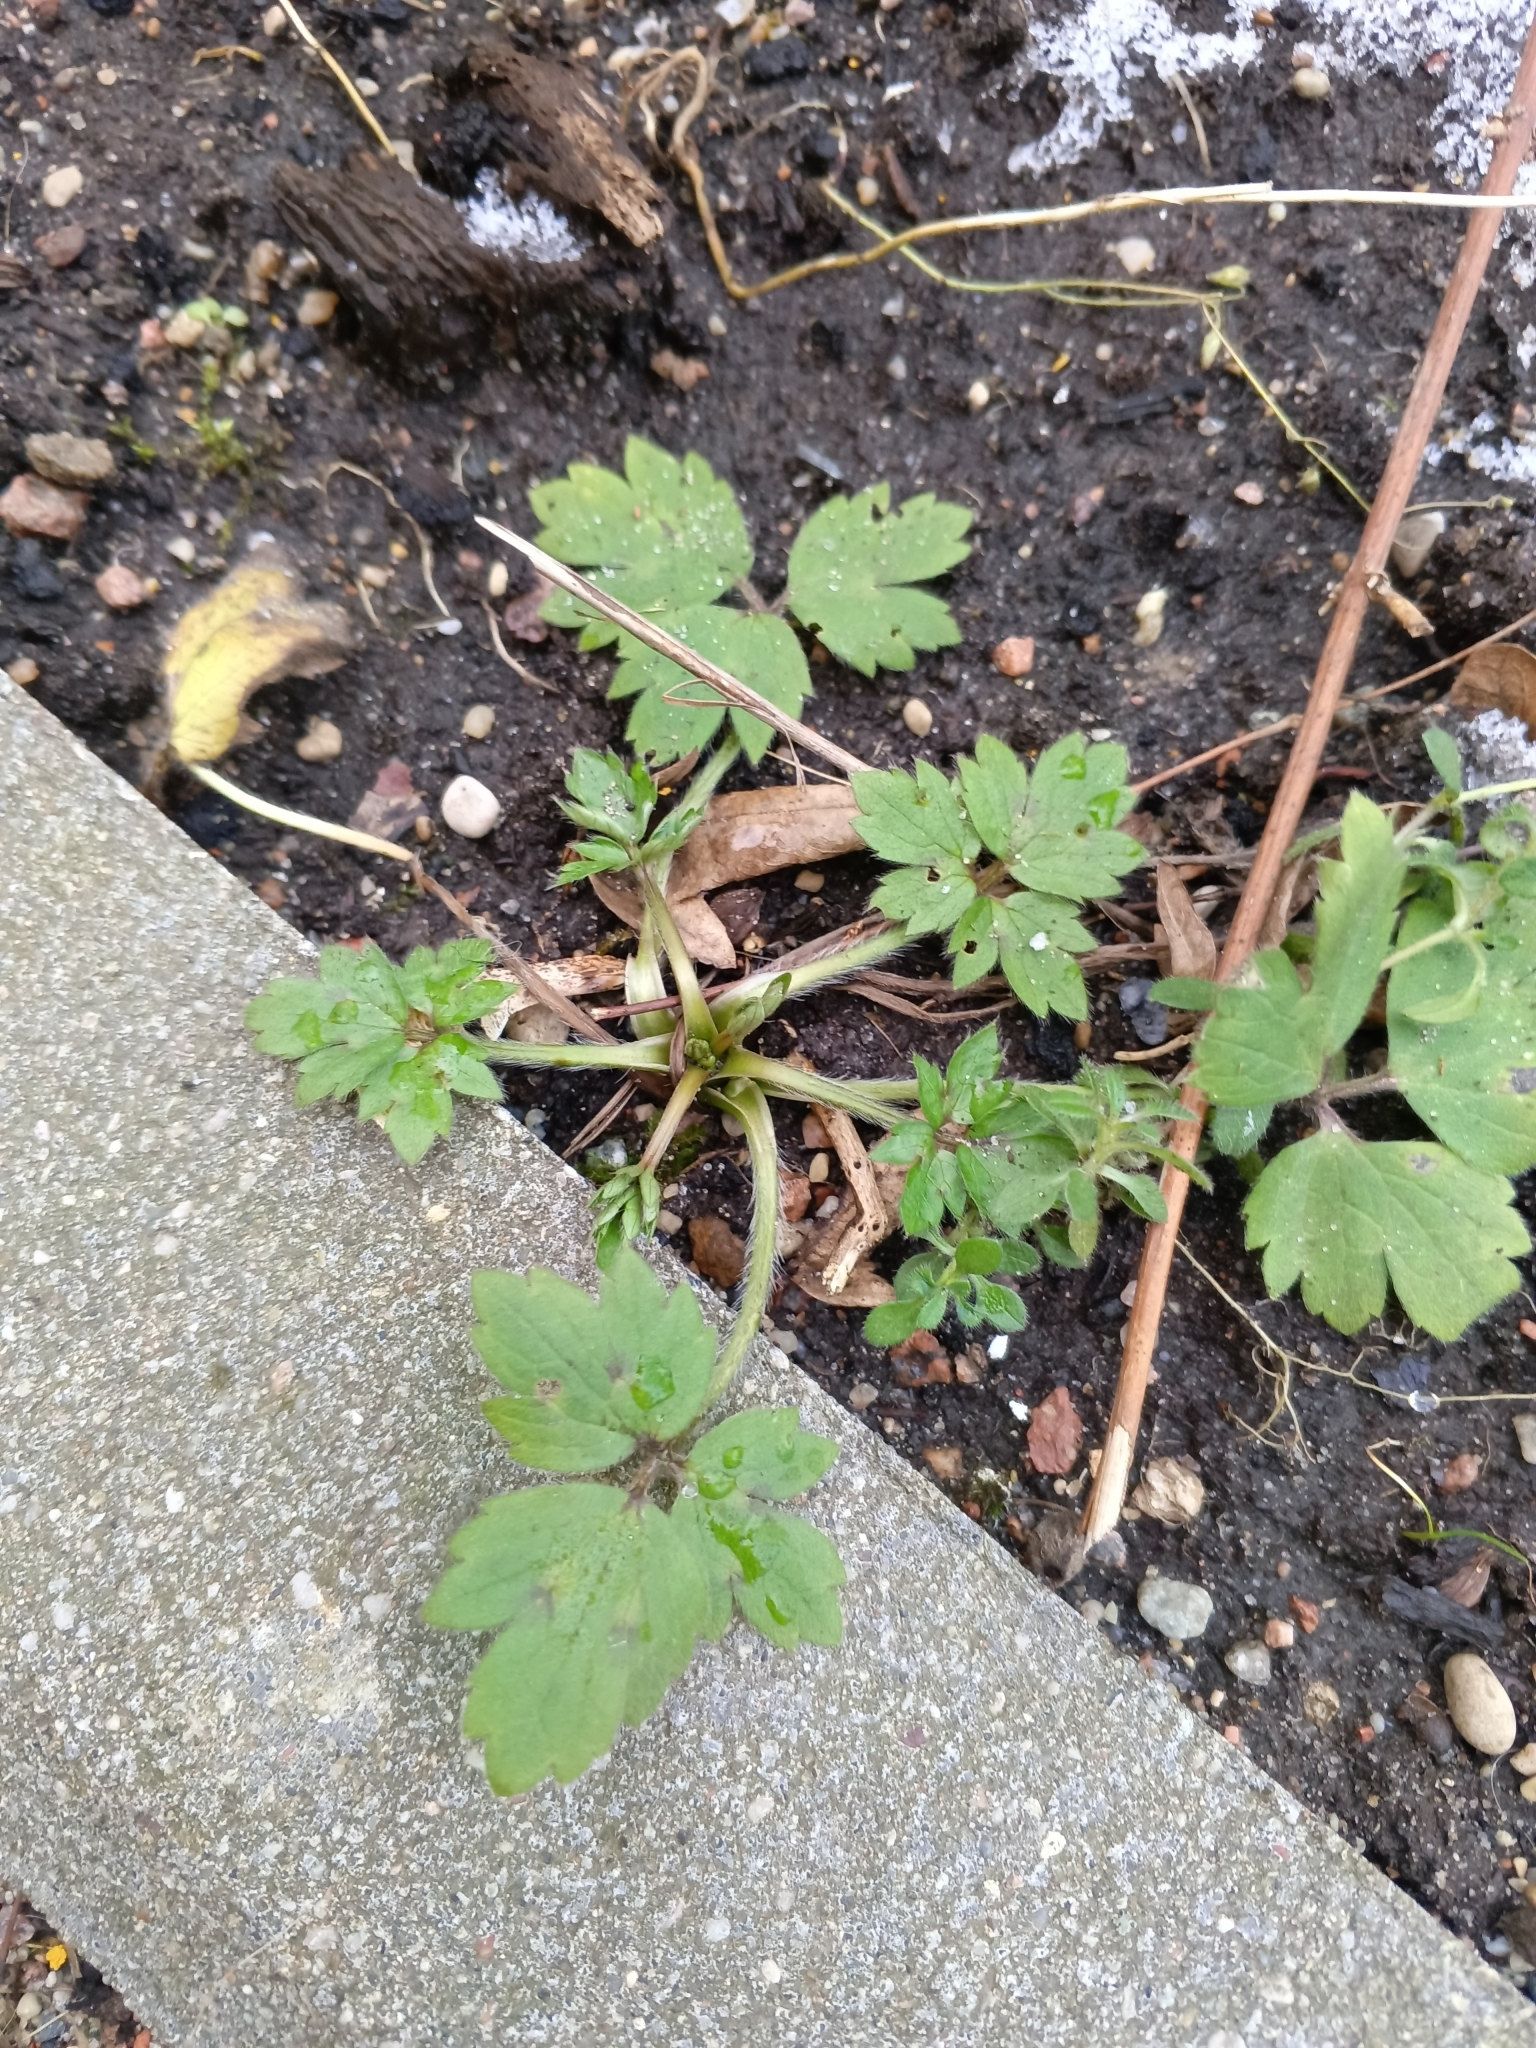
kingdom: Plantae
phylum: Tracheophyta
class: Magnoliopsida
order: Ranunculales
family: Ranunculaceae
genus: Ranunculus
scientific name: Ranunculus repens
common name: Creeping buttercup
